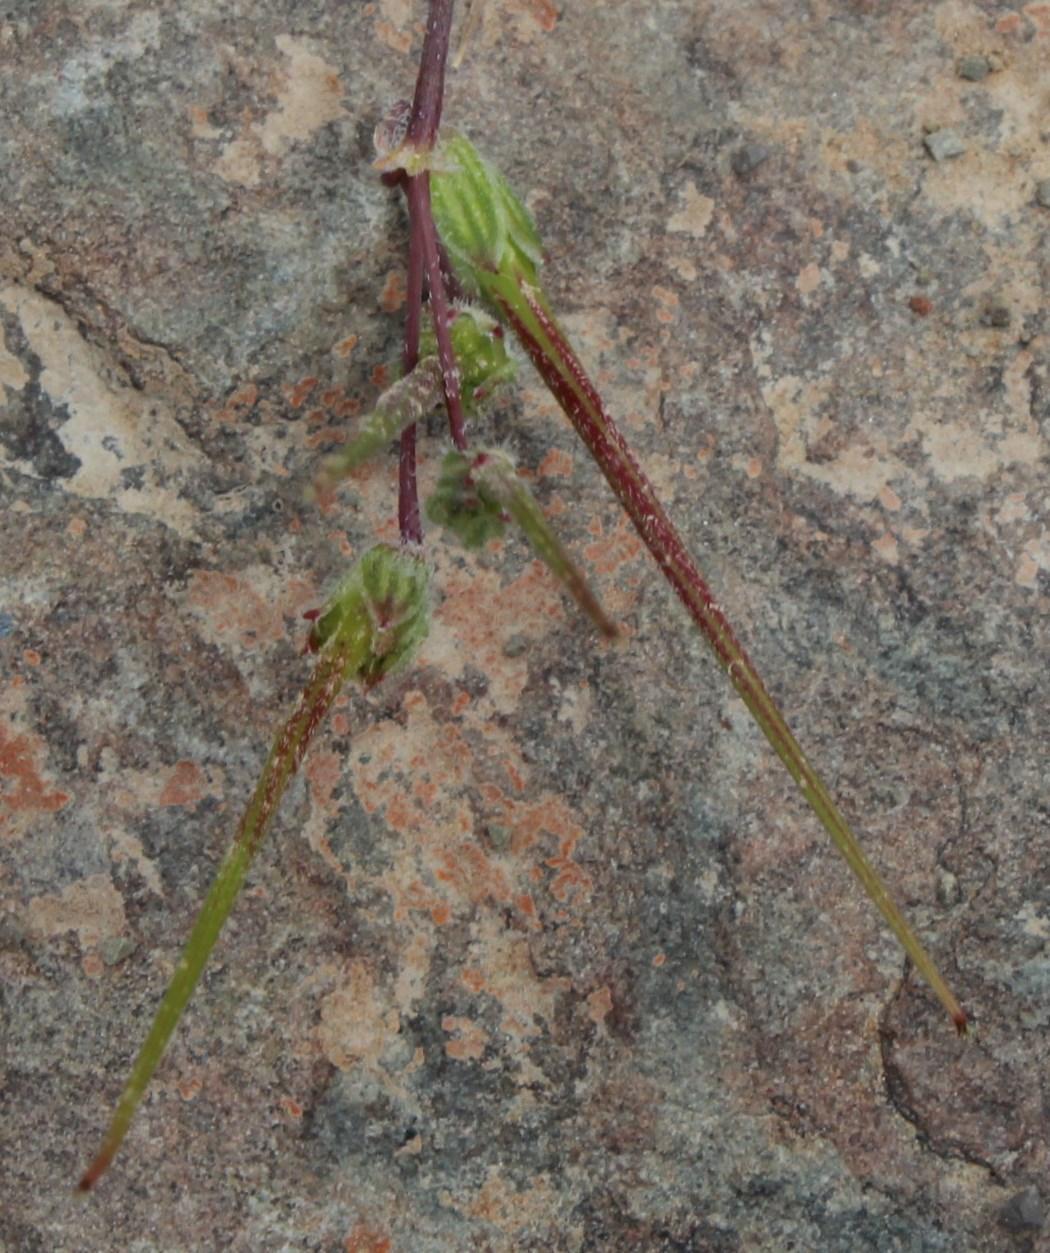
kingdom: Plantae
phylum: Tracheophyta
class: Magnoliopsida
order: Geraniales
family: Geraniaceae
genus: Erodium
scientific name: Erodium cicutarium
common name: Common stork's-bill
